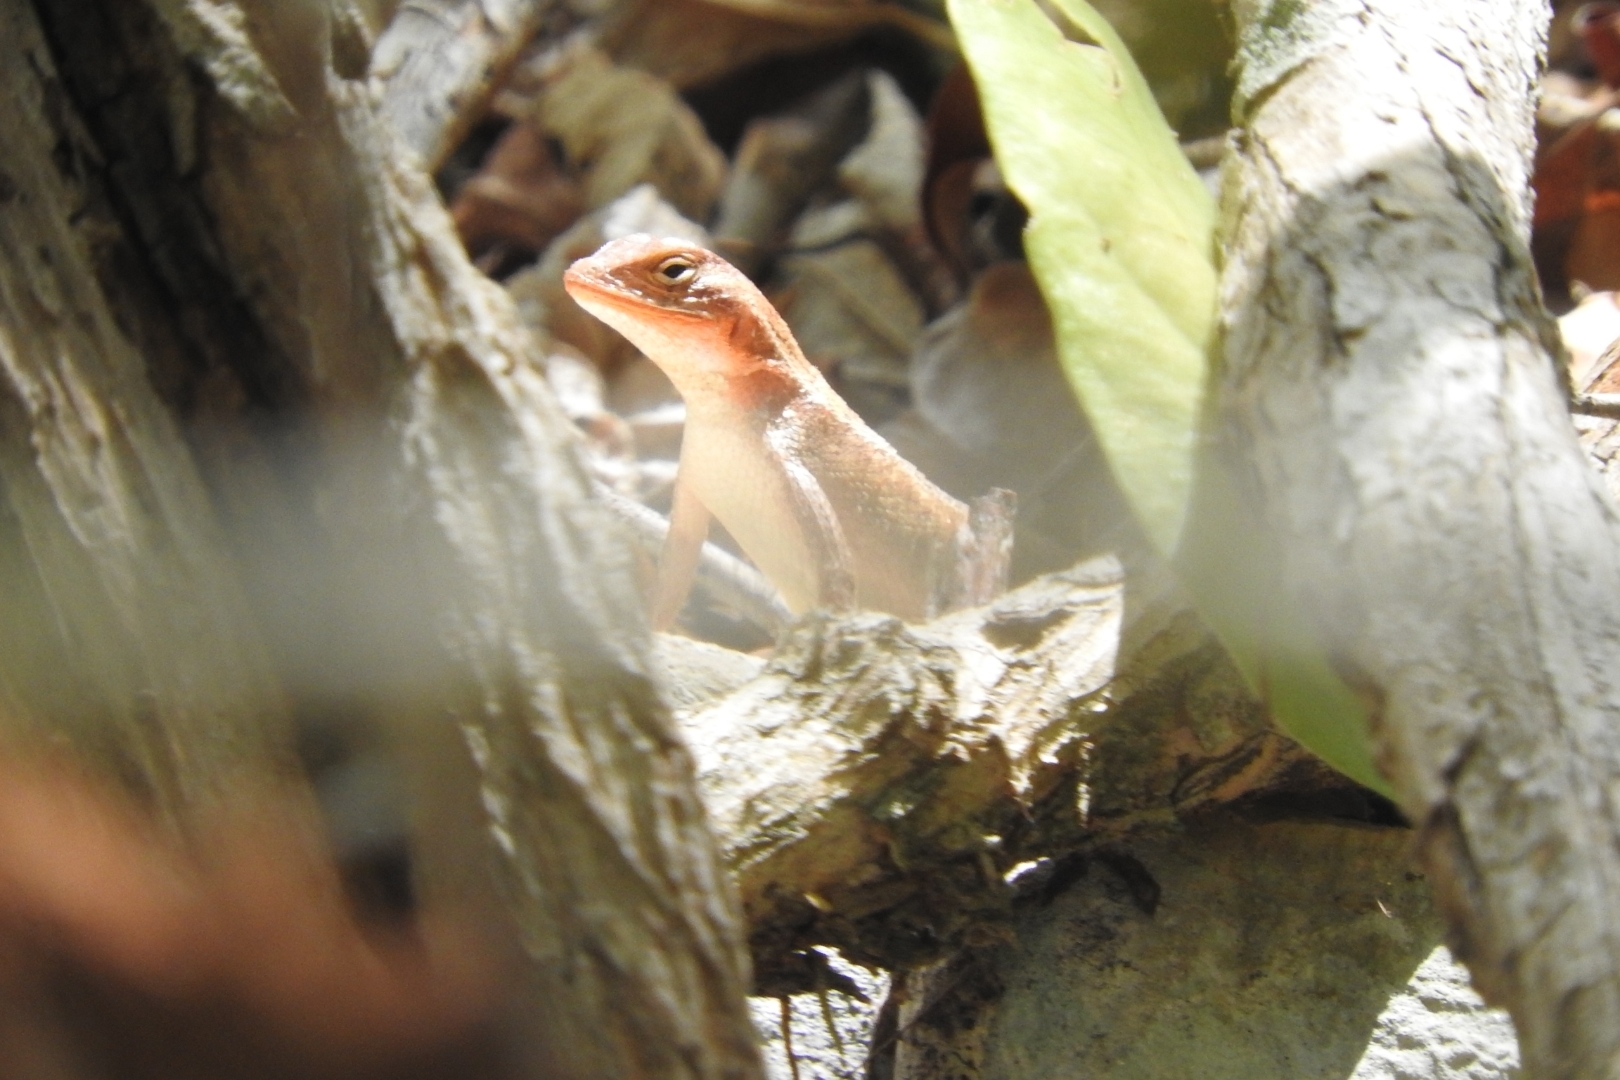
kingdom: Animalia
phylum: Chordata
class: Squamata
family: Phrynosomatidae
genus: Sceloporus
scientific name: Sceloporus chrysostictus
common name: Yellow-spotted spiny lizard
